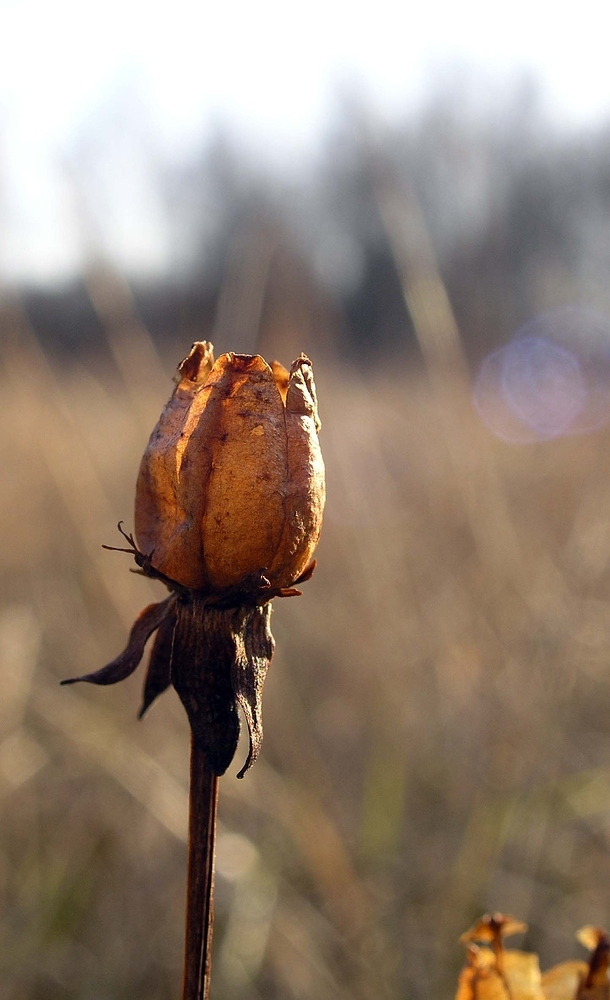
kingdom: Plantae
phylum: Tracheophyta
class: Magnoliopsida
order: Celastrales
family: Parnassiaceae
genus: Parnassia
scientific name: Parnassia palustris
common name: Grass-of-parnassus
